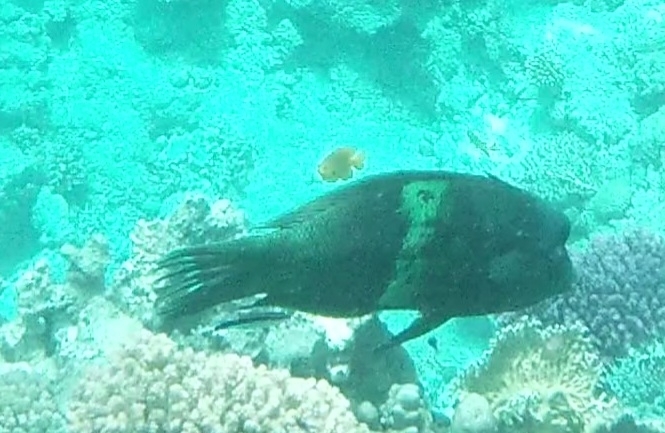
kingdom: Animalia
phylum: Chordata
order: Perciformes
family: Labridae
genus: Coris
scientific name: Coris aygula
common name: Clown coris
